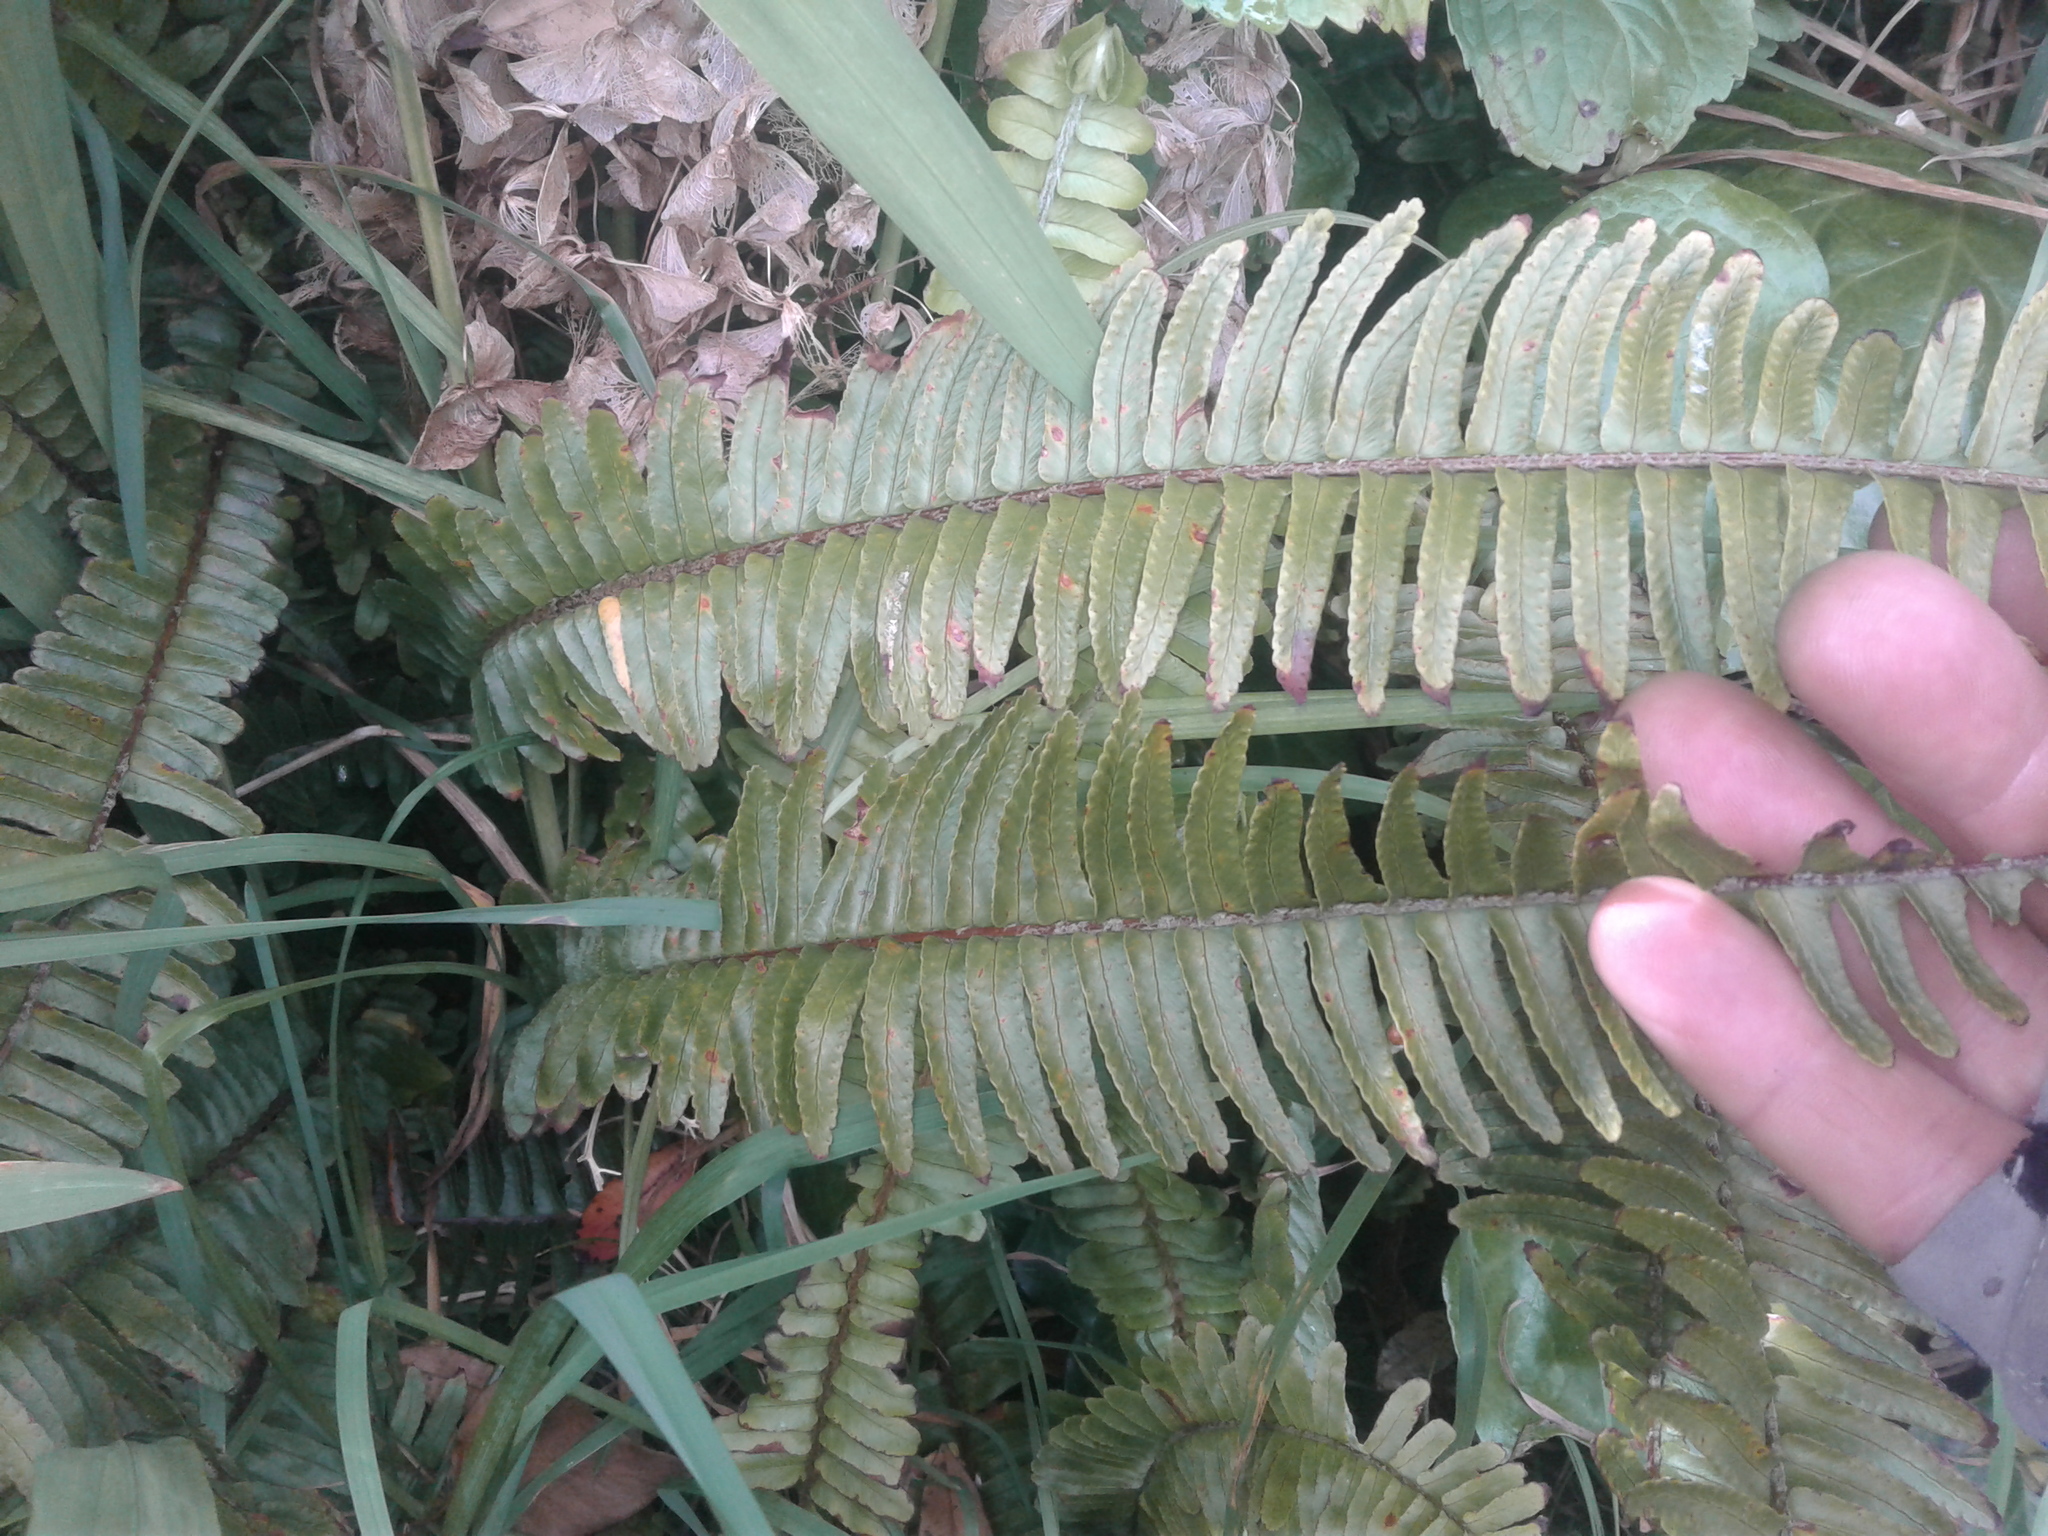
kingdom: Plantae
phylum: Tracheophyta
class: Polypodiopsida
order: Polypodiales
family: Nephrolepidaceae
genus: Nephrolepis
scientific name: Nephrolepis cordifolia
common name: Narrow swordfern
